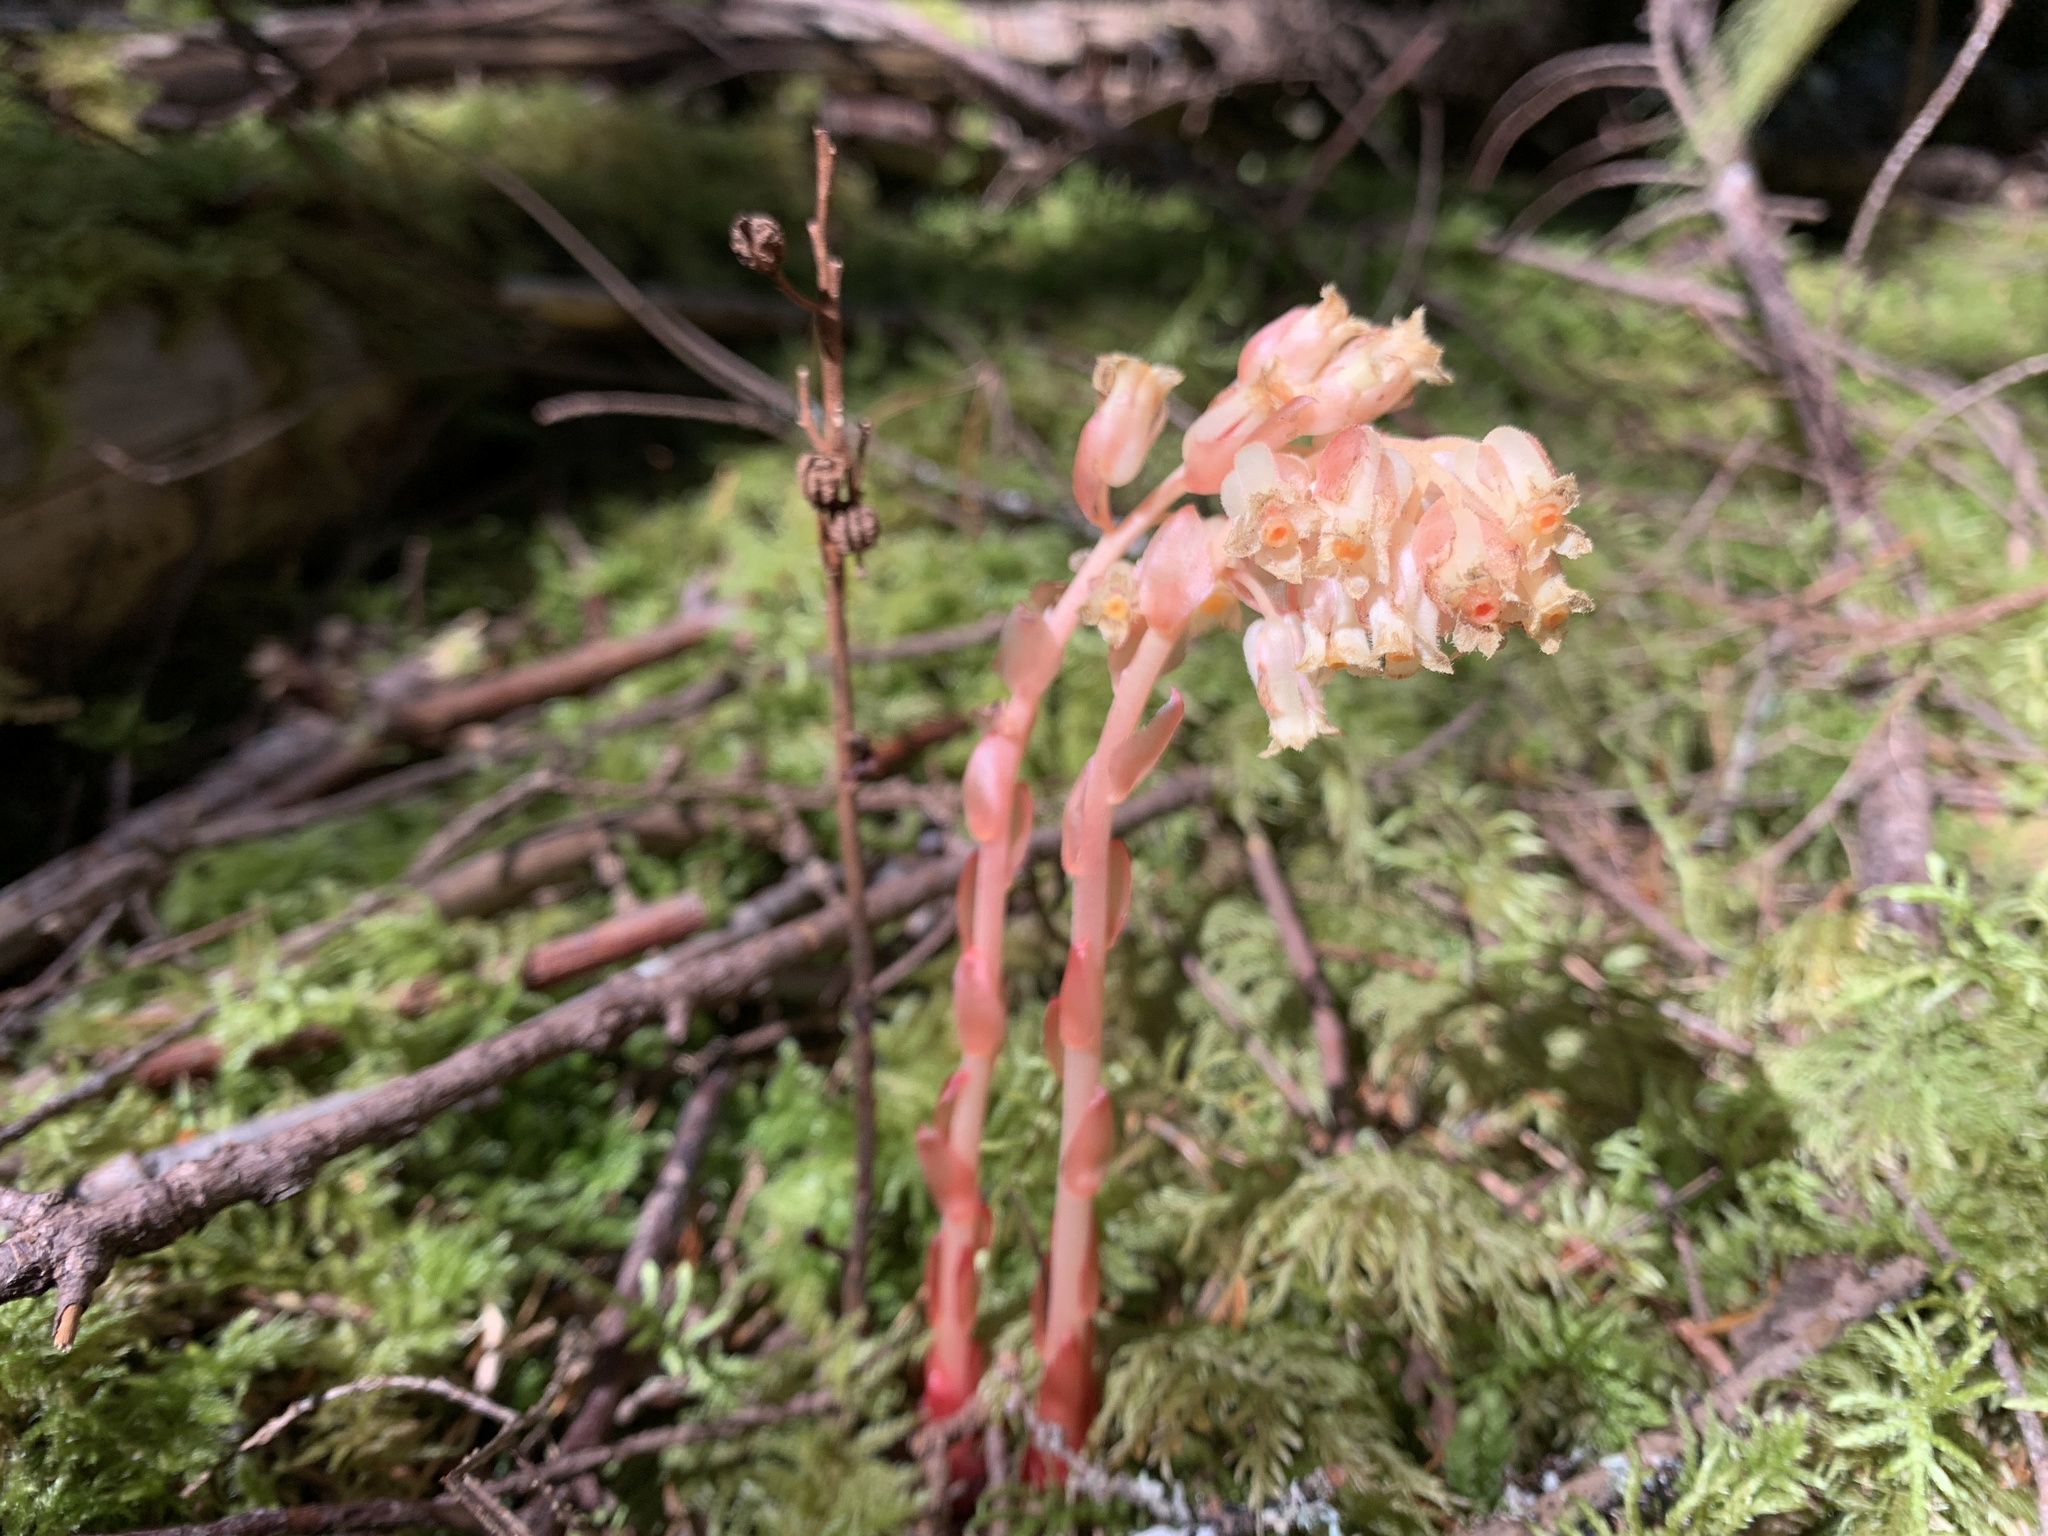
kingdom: Plantae
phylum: Tracheophyta
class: Magnoliopsida
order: Ericales
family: Ericaceae
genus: Hypopitys
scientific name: Hypopitys monotropa
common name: Yellow bird's-nest
